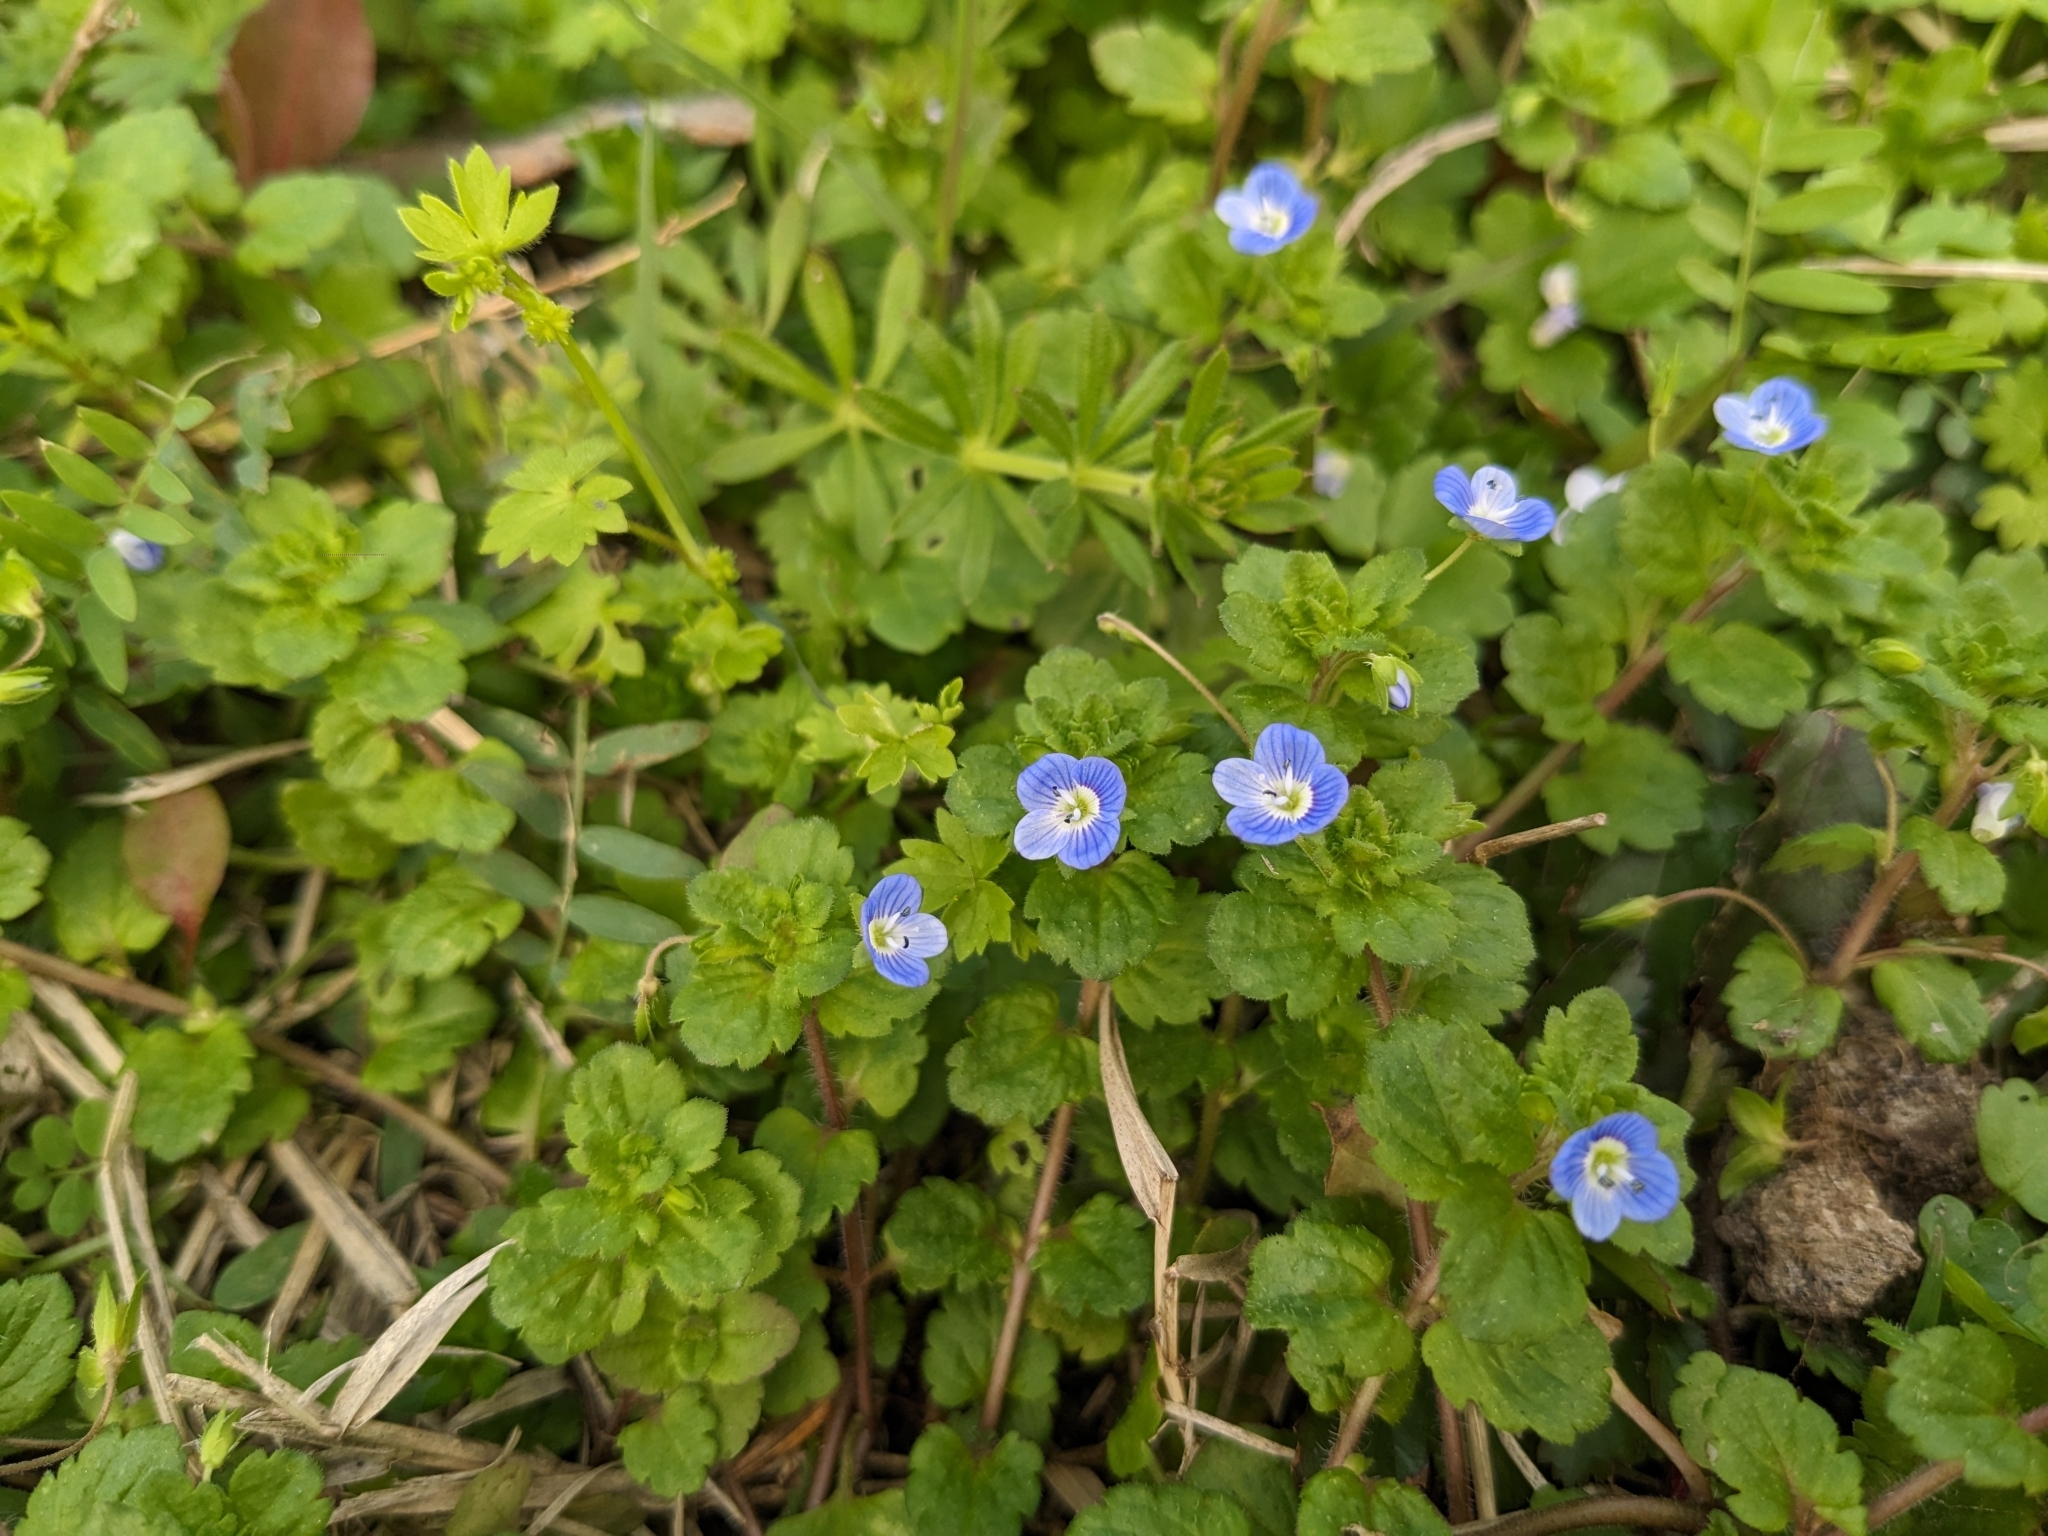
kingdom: Plantae
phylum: Tracheophyta
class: Magnoliopsida
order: Lamiales
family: Plantaginaceae
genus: Veronica
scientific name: Veronica persica
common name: Common field-speedwell
